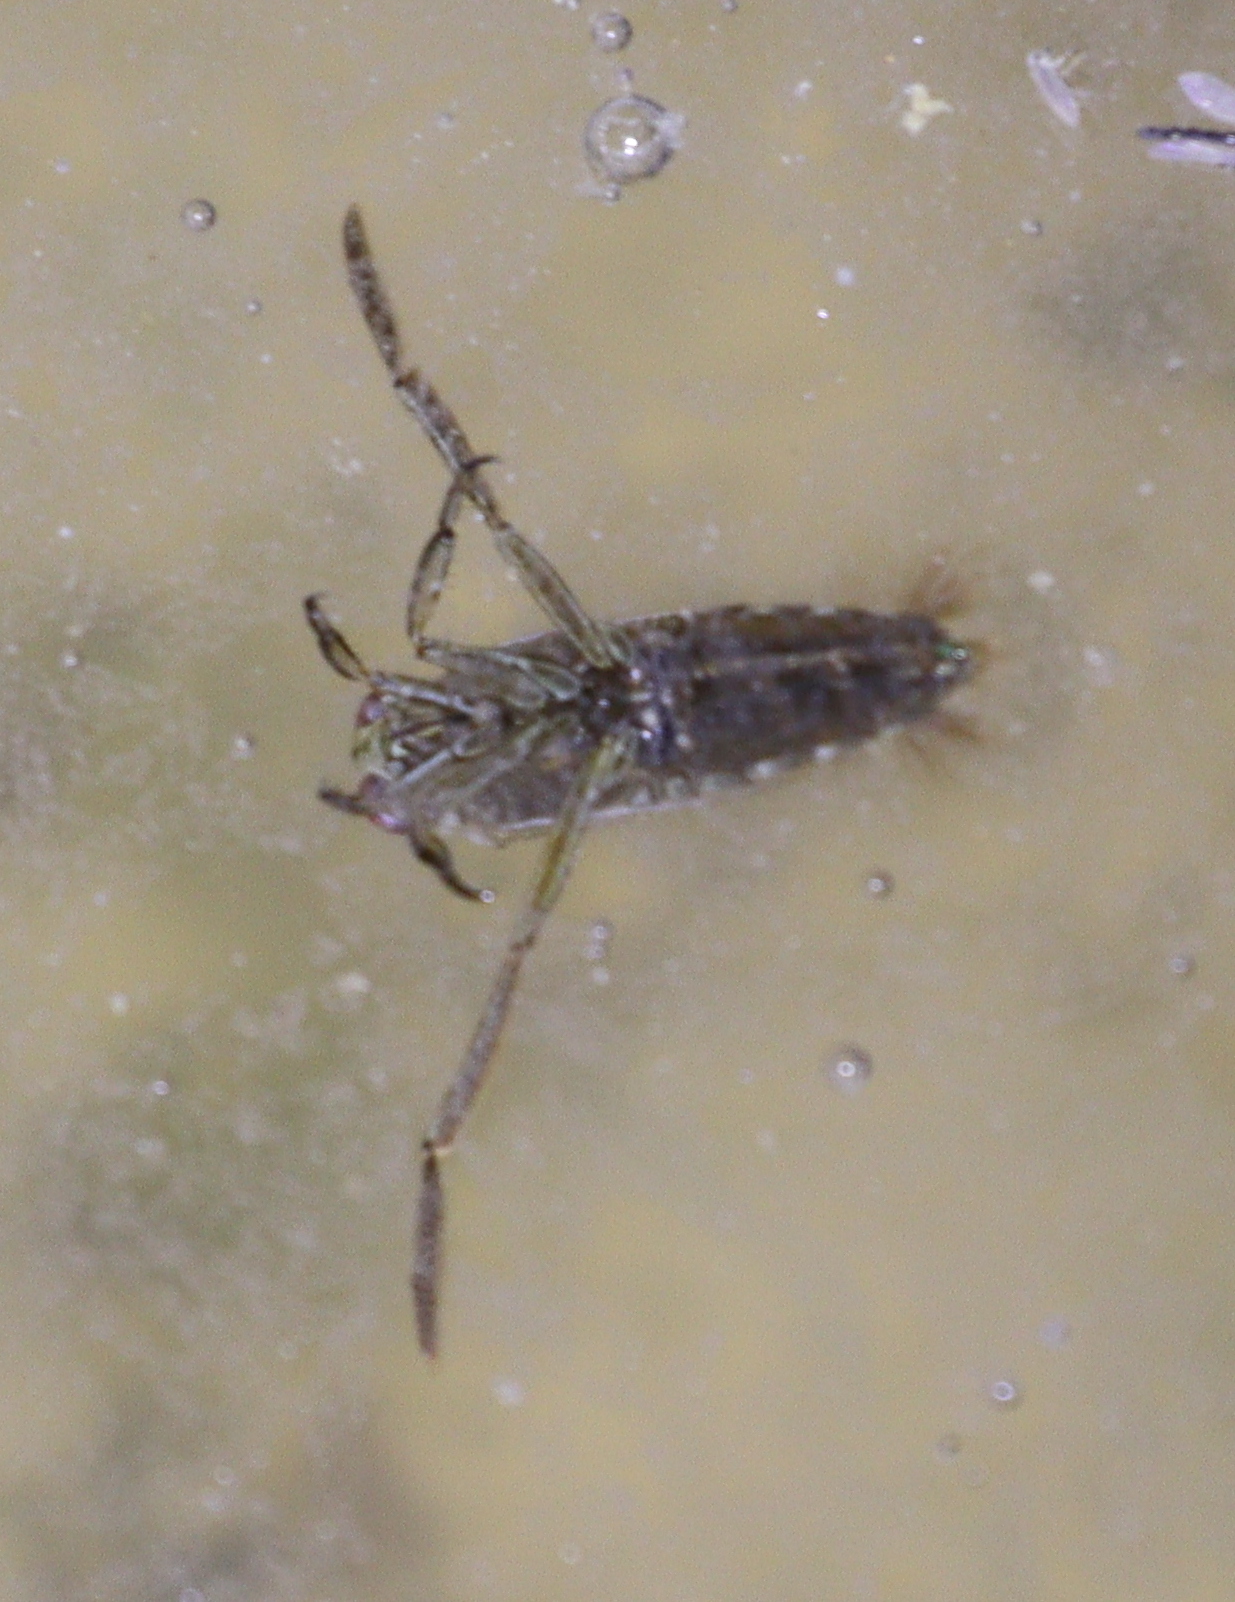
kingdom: Animalia
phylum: Arthropoda
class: Insecta
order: Hemiptera
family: Notonectidae
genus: Notonecta
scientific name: Notonecta
